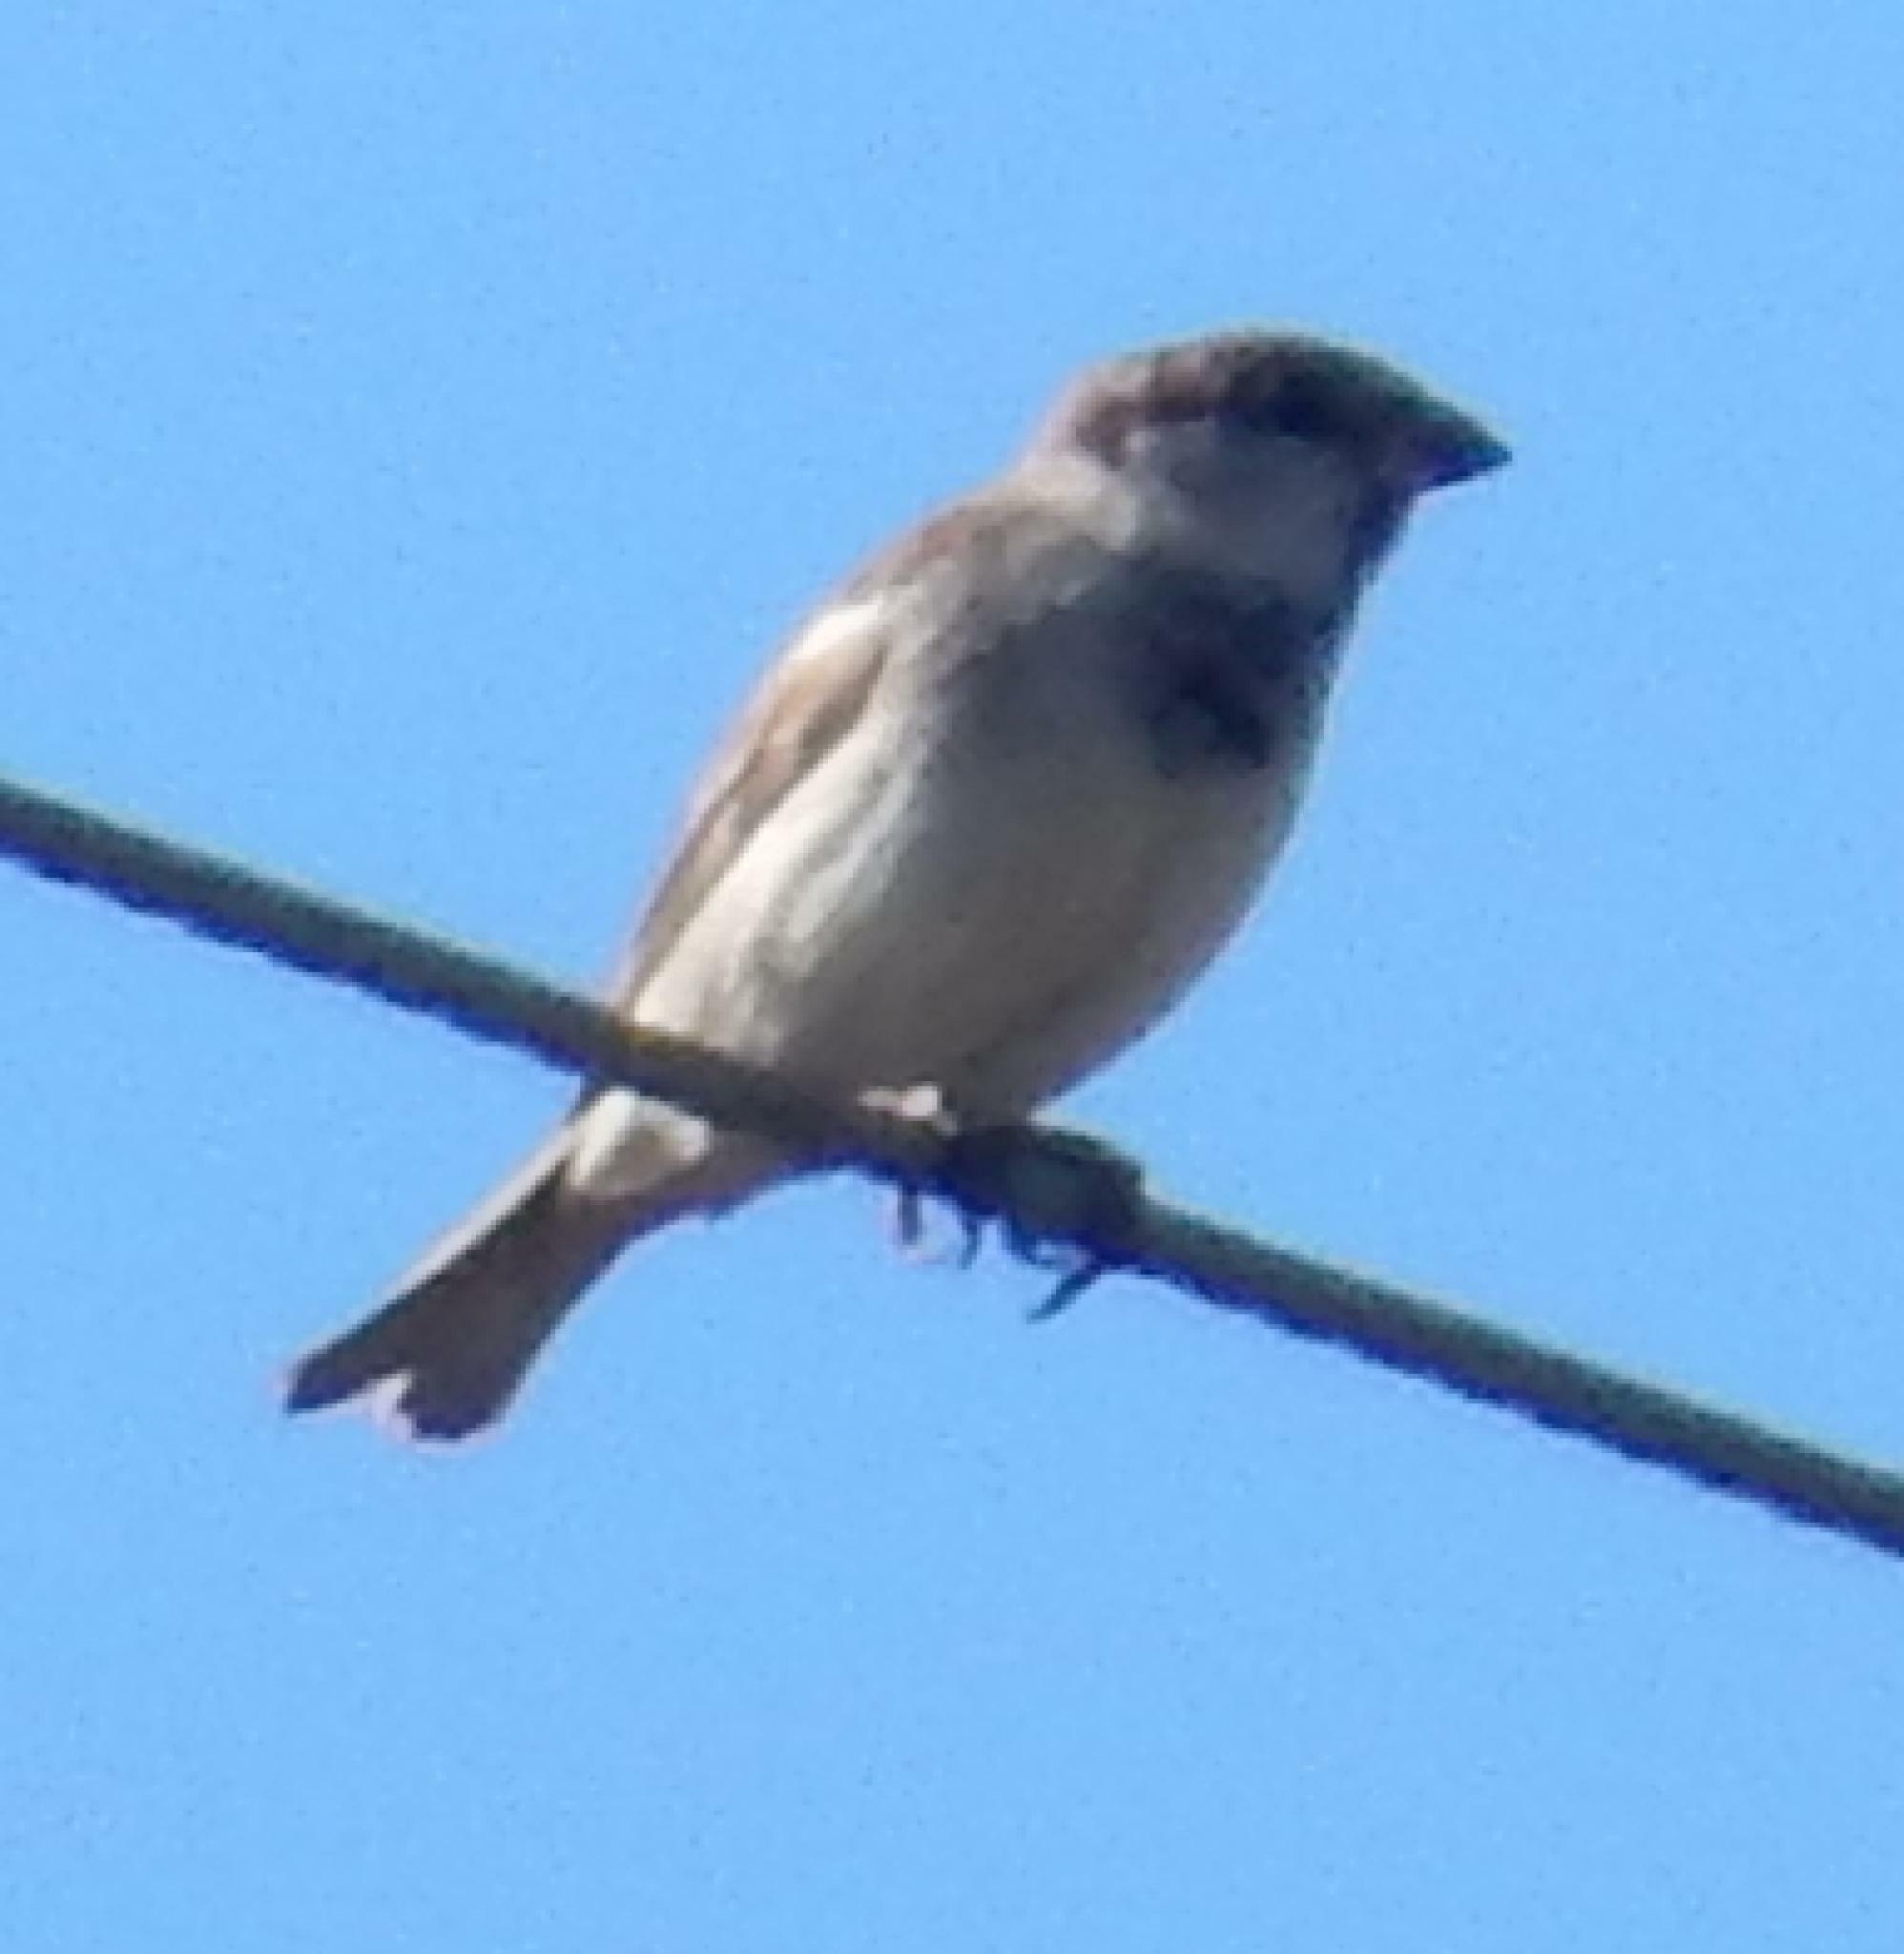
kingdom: Animalia
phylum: Chordata
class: Aves
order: Passeriformes
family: Passeridae
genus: Passer
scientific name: Passer domesticus
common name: House sparrow
